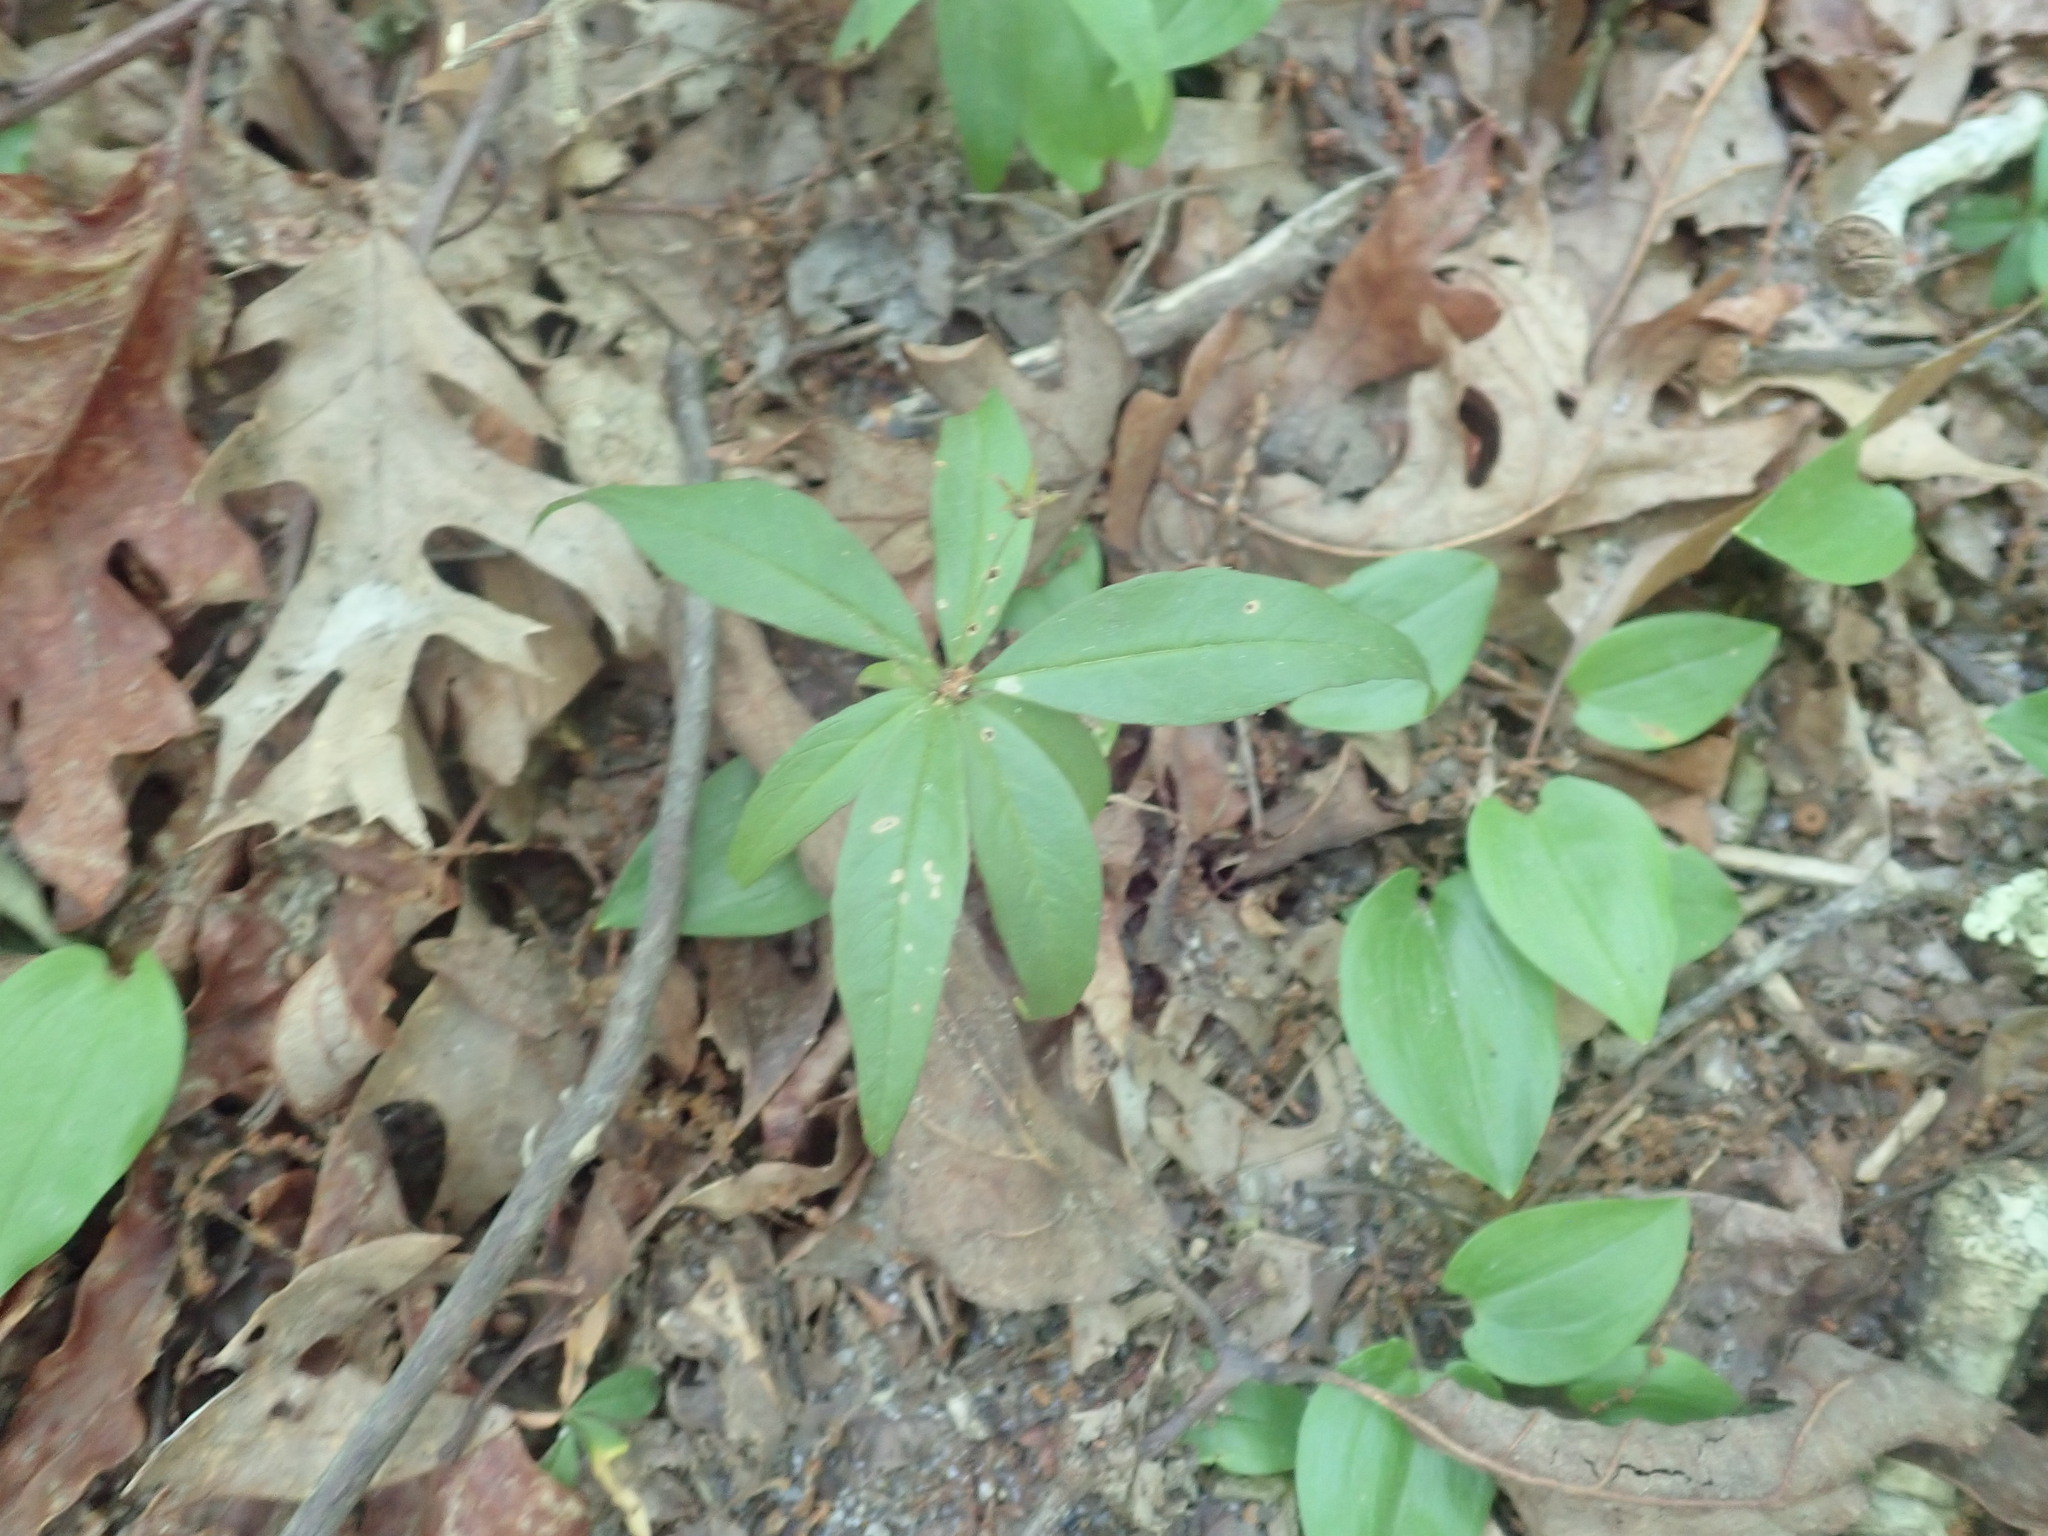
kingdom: Plantae
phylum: Tracheophyta
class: Magnoliopsida
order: Ericales
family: Primulaceae
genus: Lysimachia
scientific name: Lysimachia borealis
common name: American starflower
